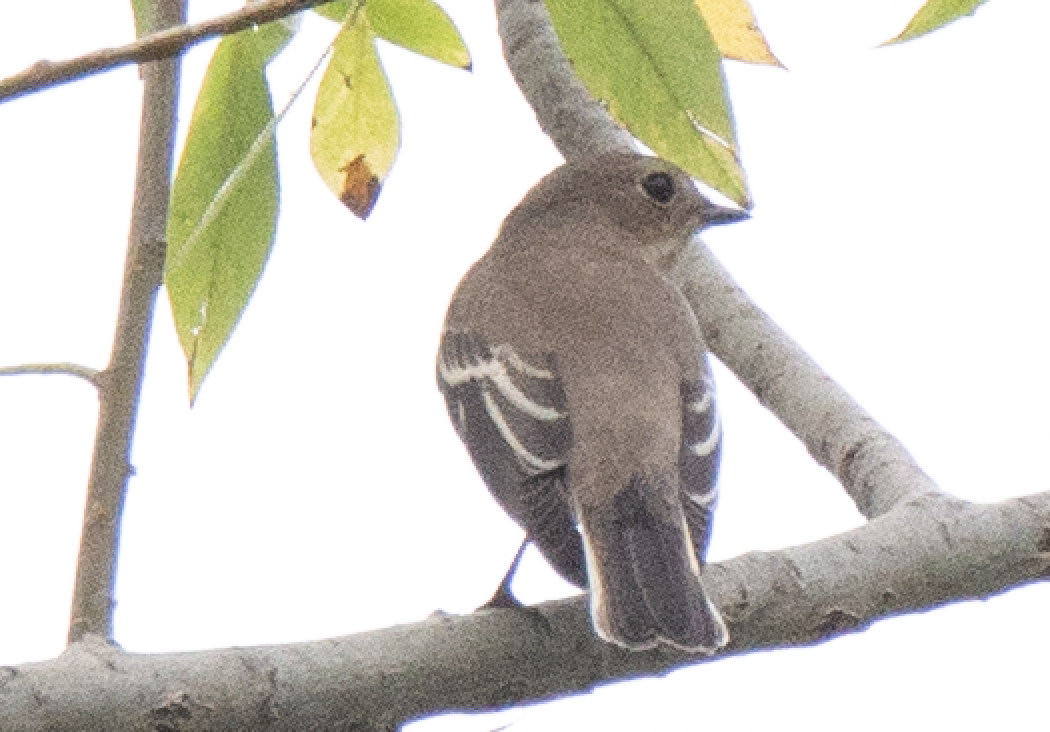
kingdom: Animalia
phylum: Chordata
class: Aves
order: Passeriformes
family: Muscicapidae
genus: Ficedula
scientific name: Ficedula hypoleuca
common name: European pied flycatcher
